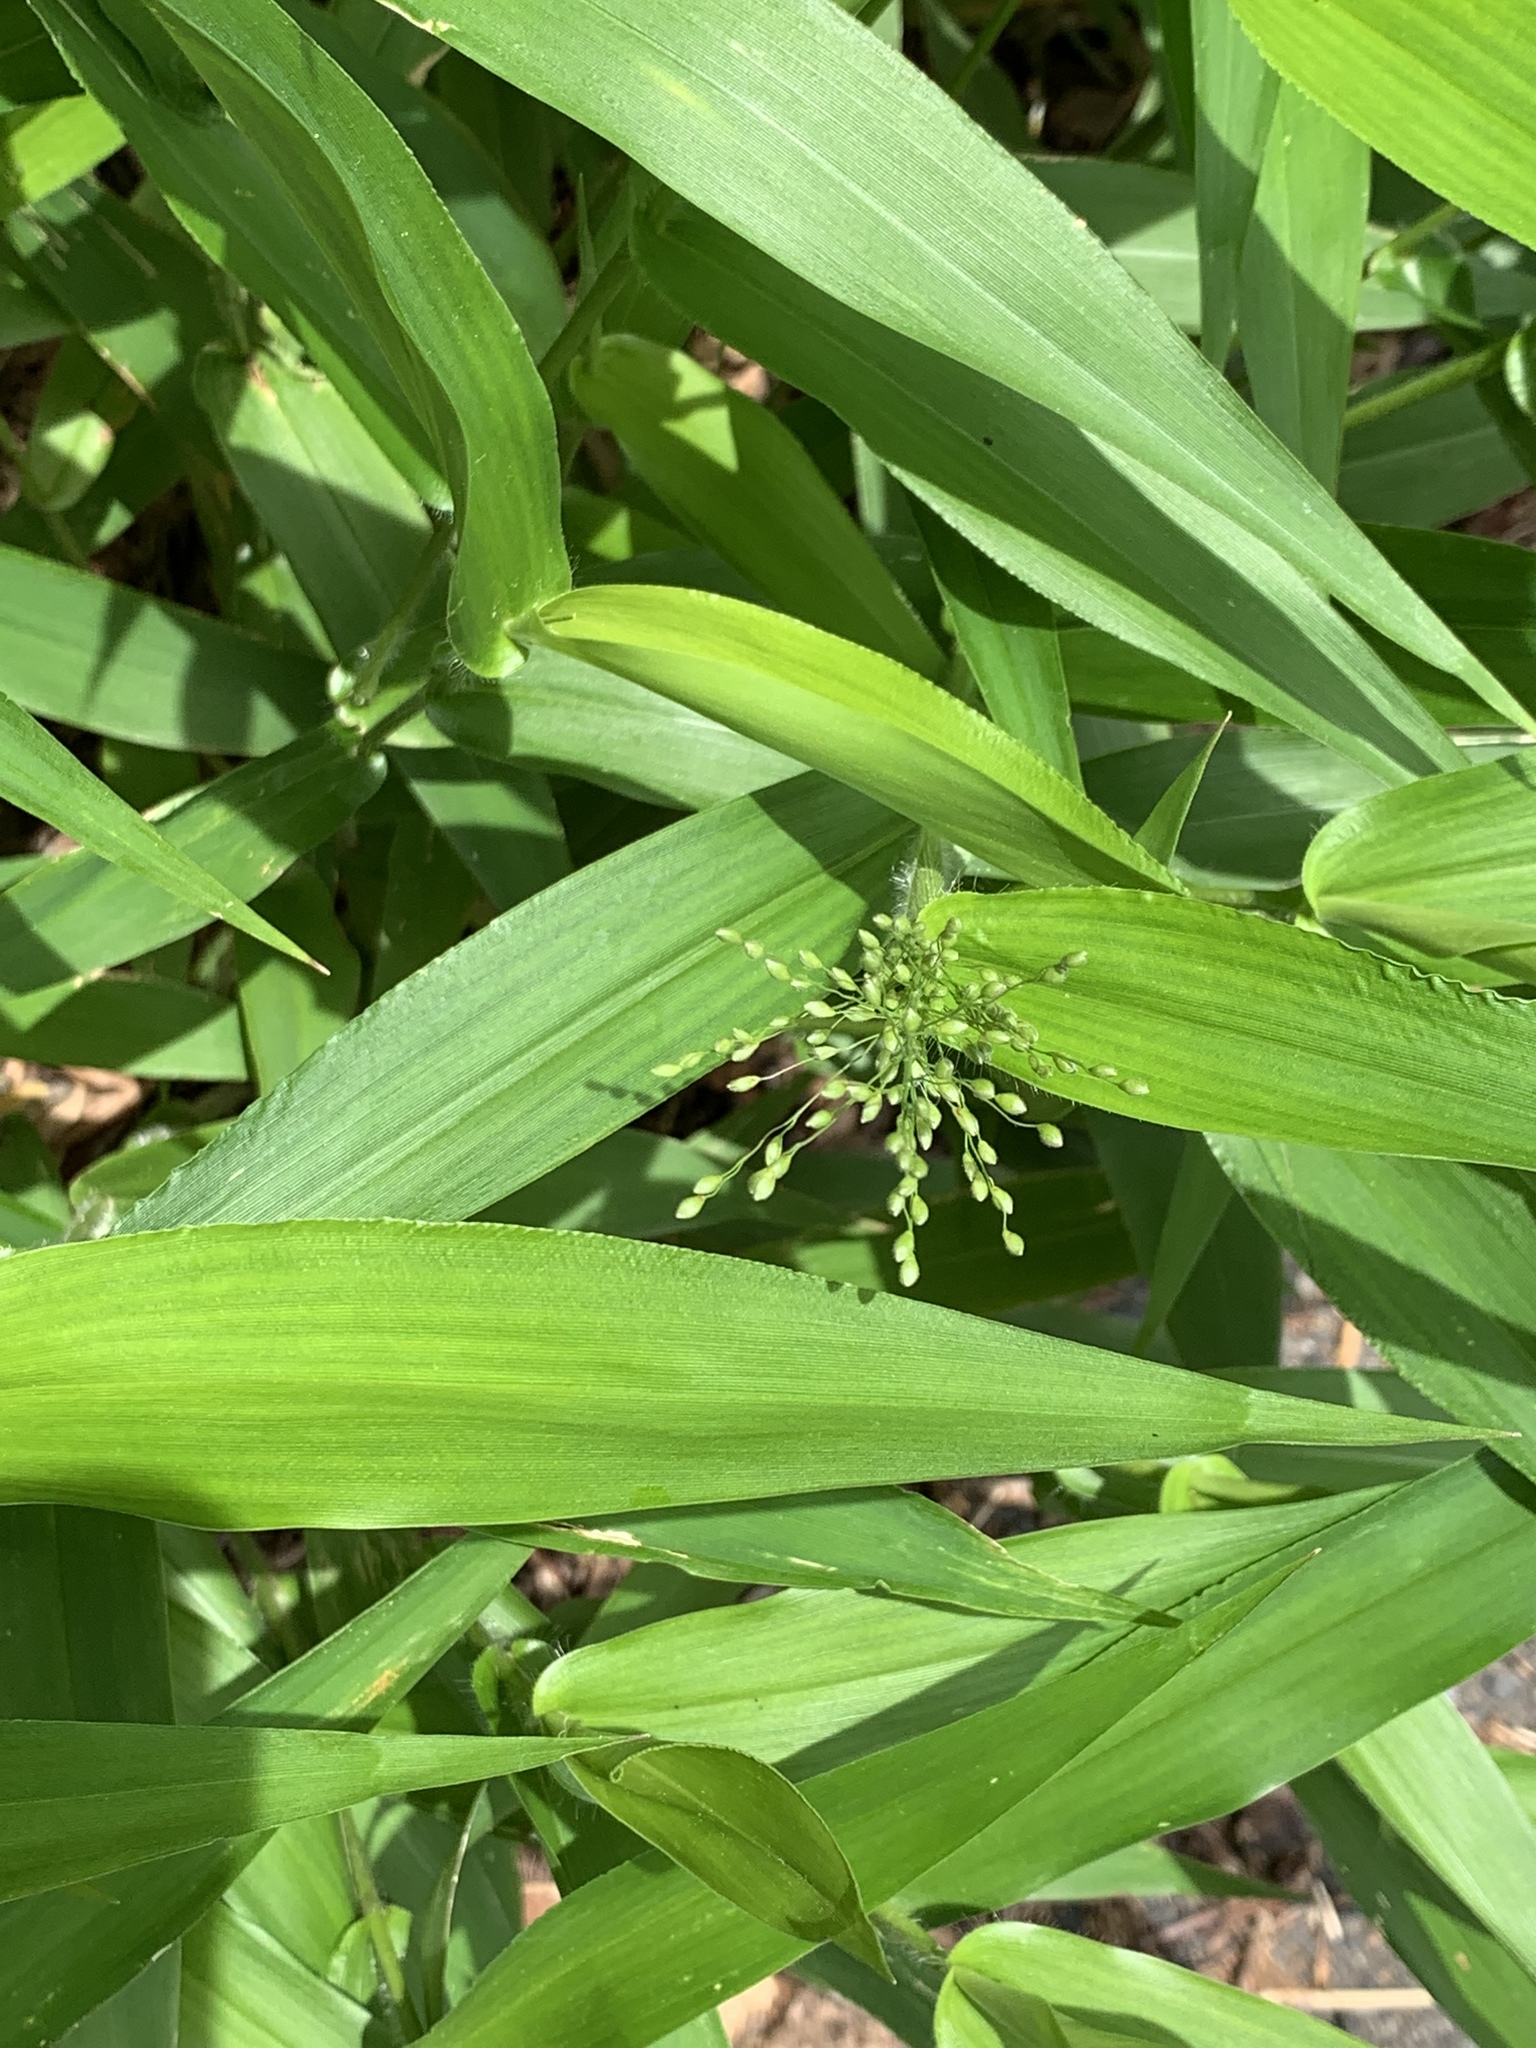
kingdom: Plantae
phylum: Tracheophyta
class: Liliopsida
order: Poales
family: Poaceae
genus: Dichanthelium
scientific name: Dichanthelium clandestinum
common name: Deer-tongue grass
